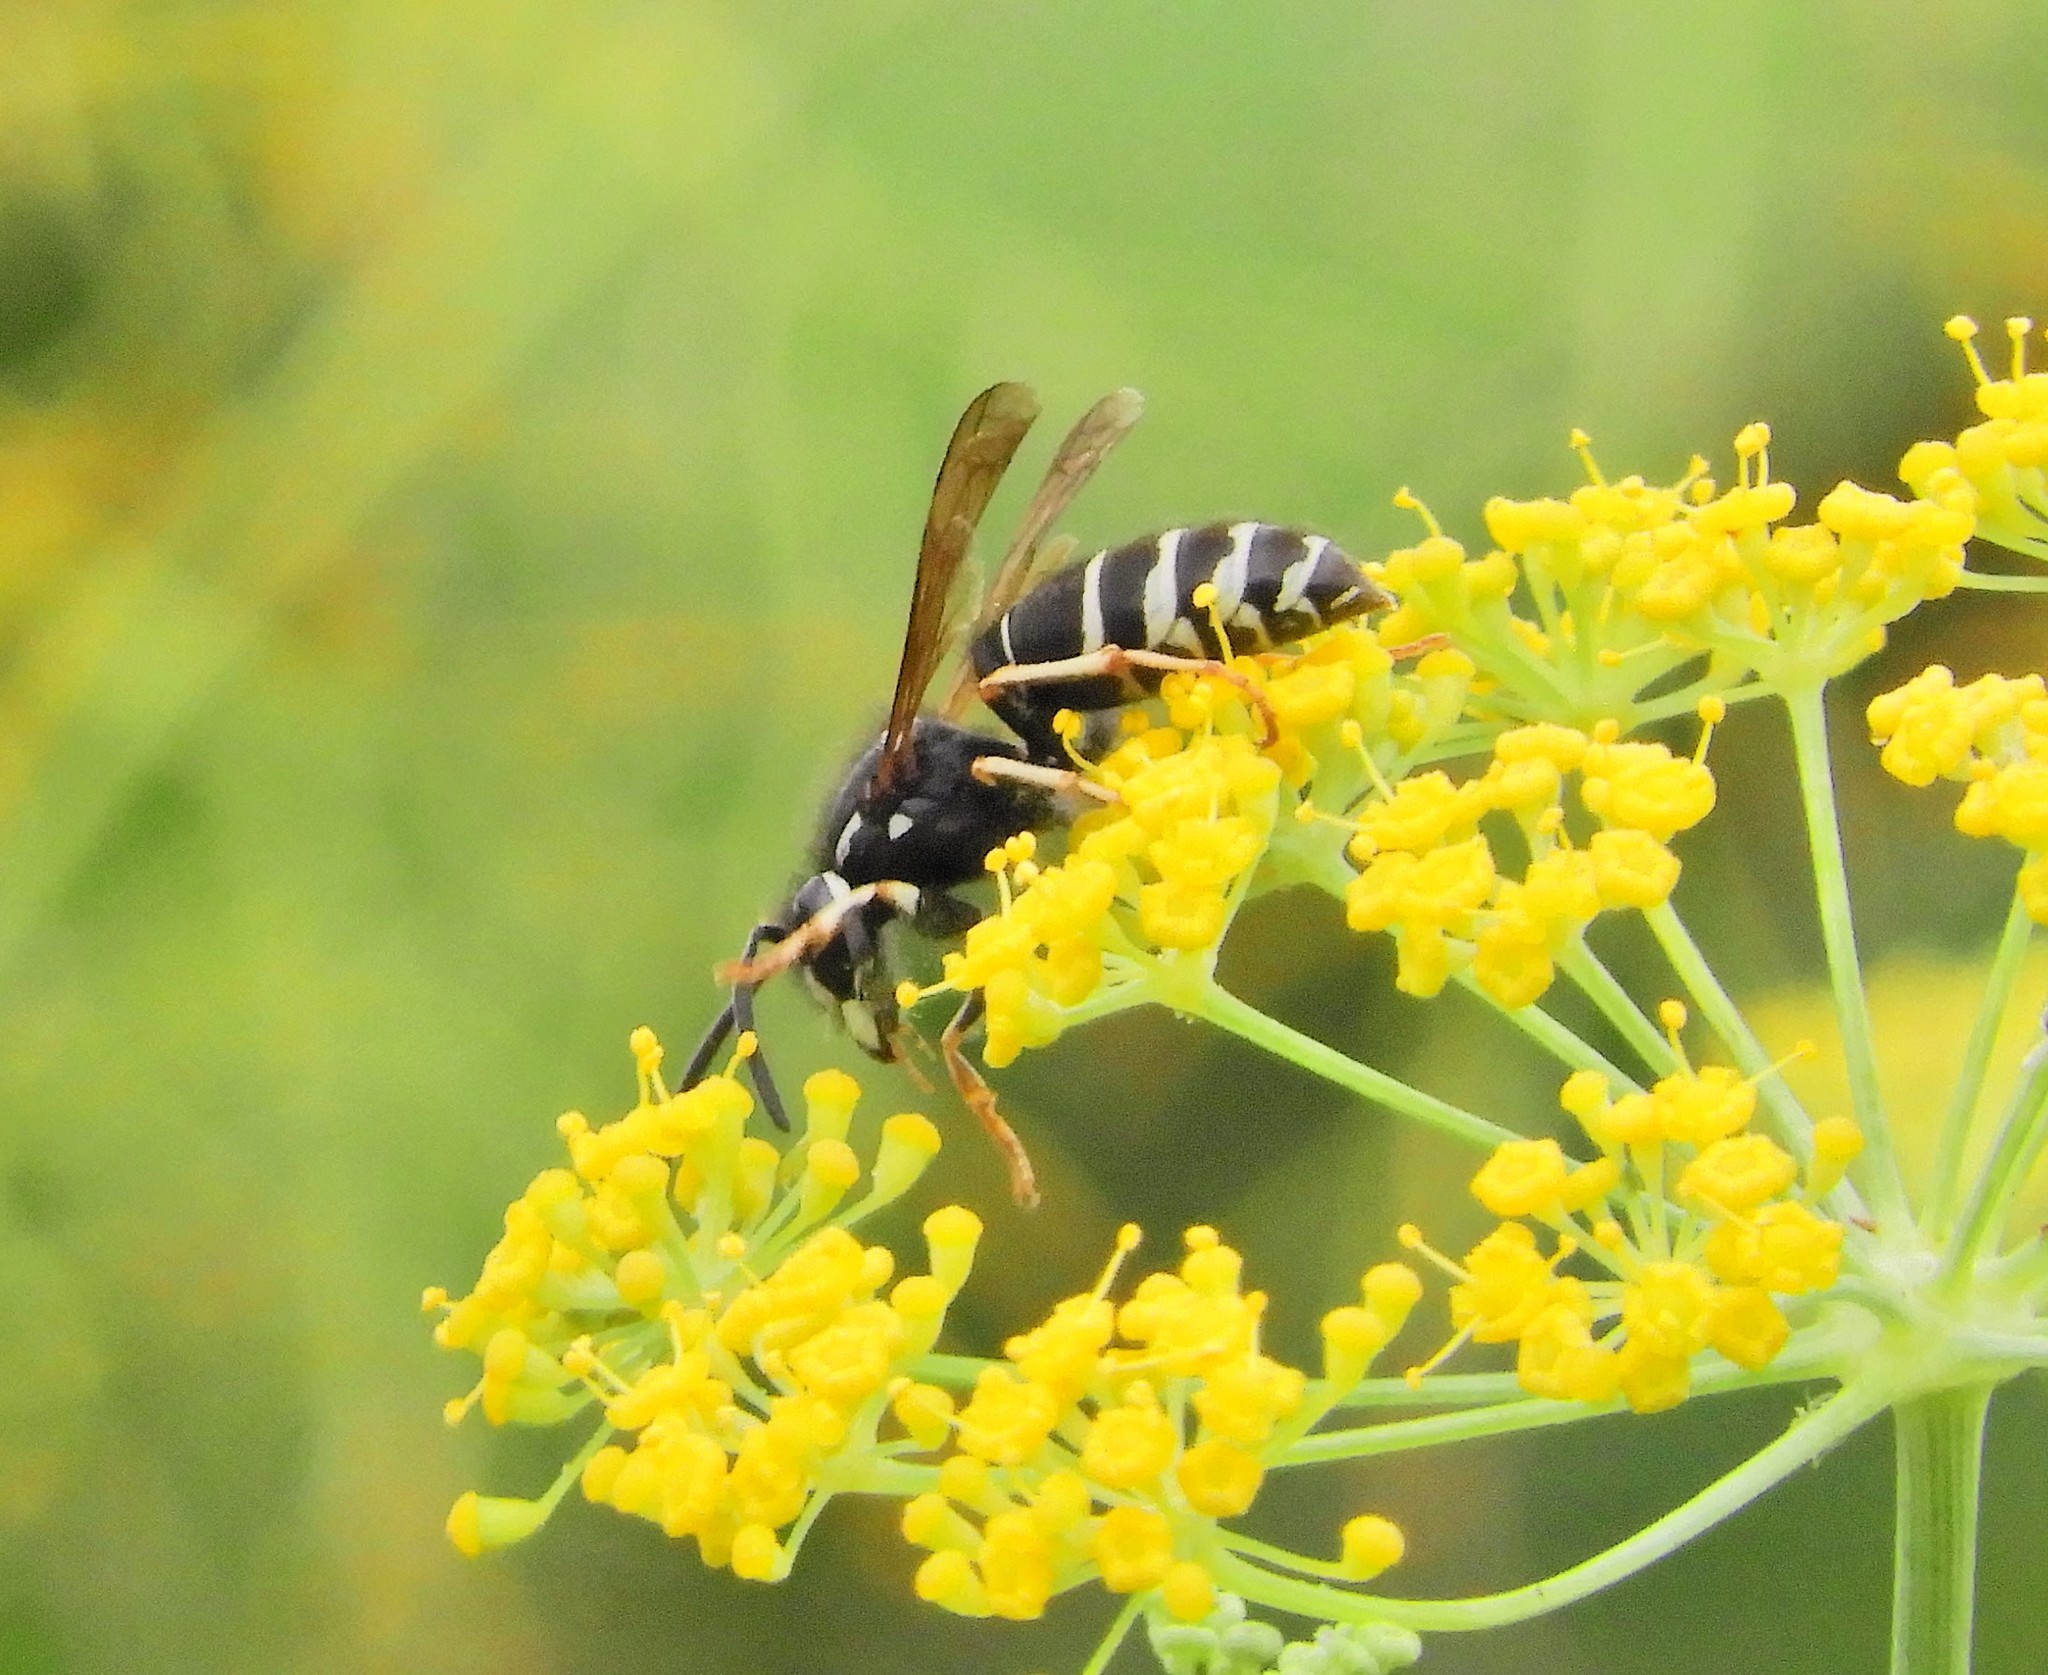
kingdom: Animalia
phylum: Arthropoda
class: Insecta
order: Hymenoptera
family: Vespidae
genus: Vespula
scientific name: Vespula consobrina
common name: Blackjacket
